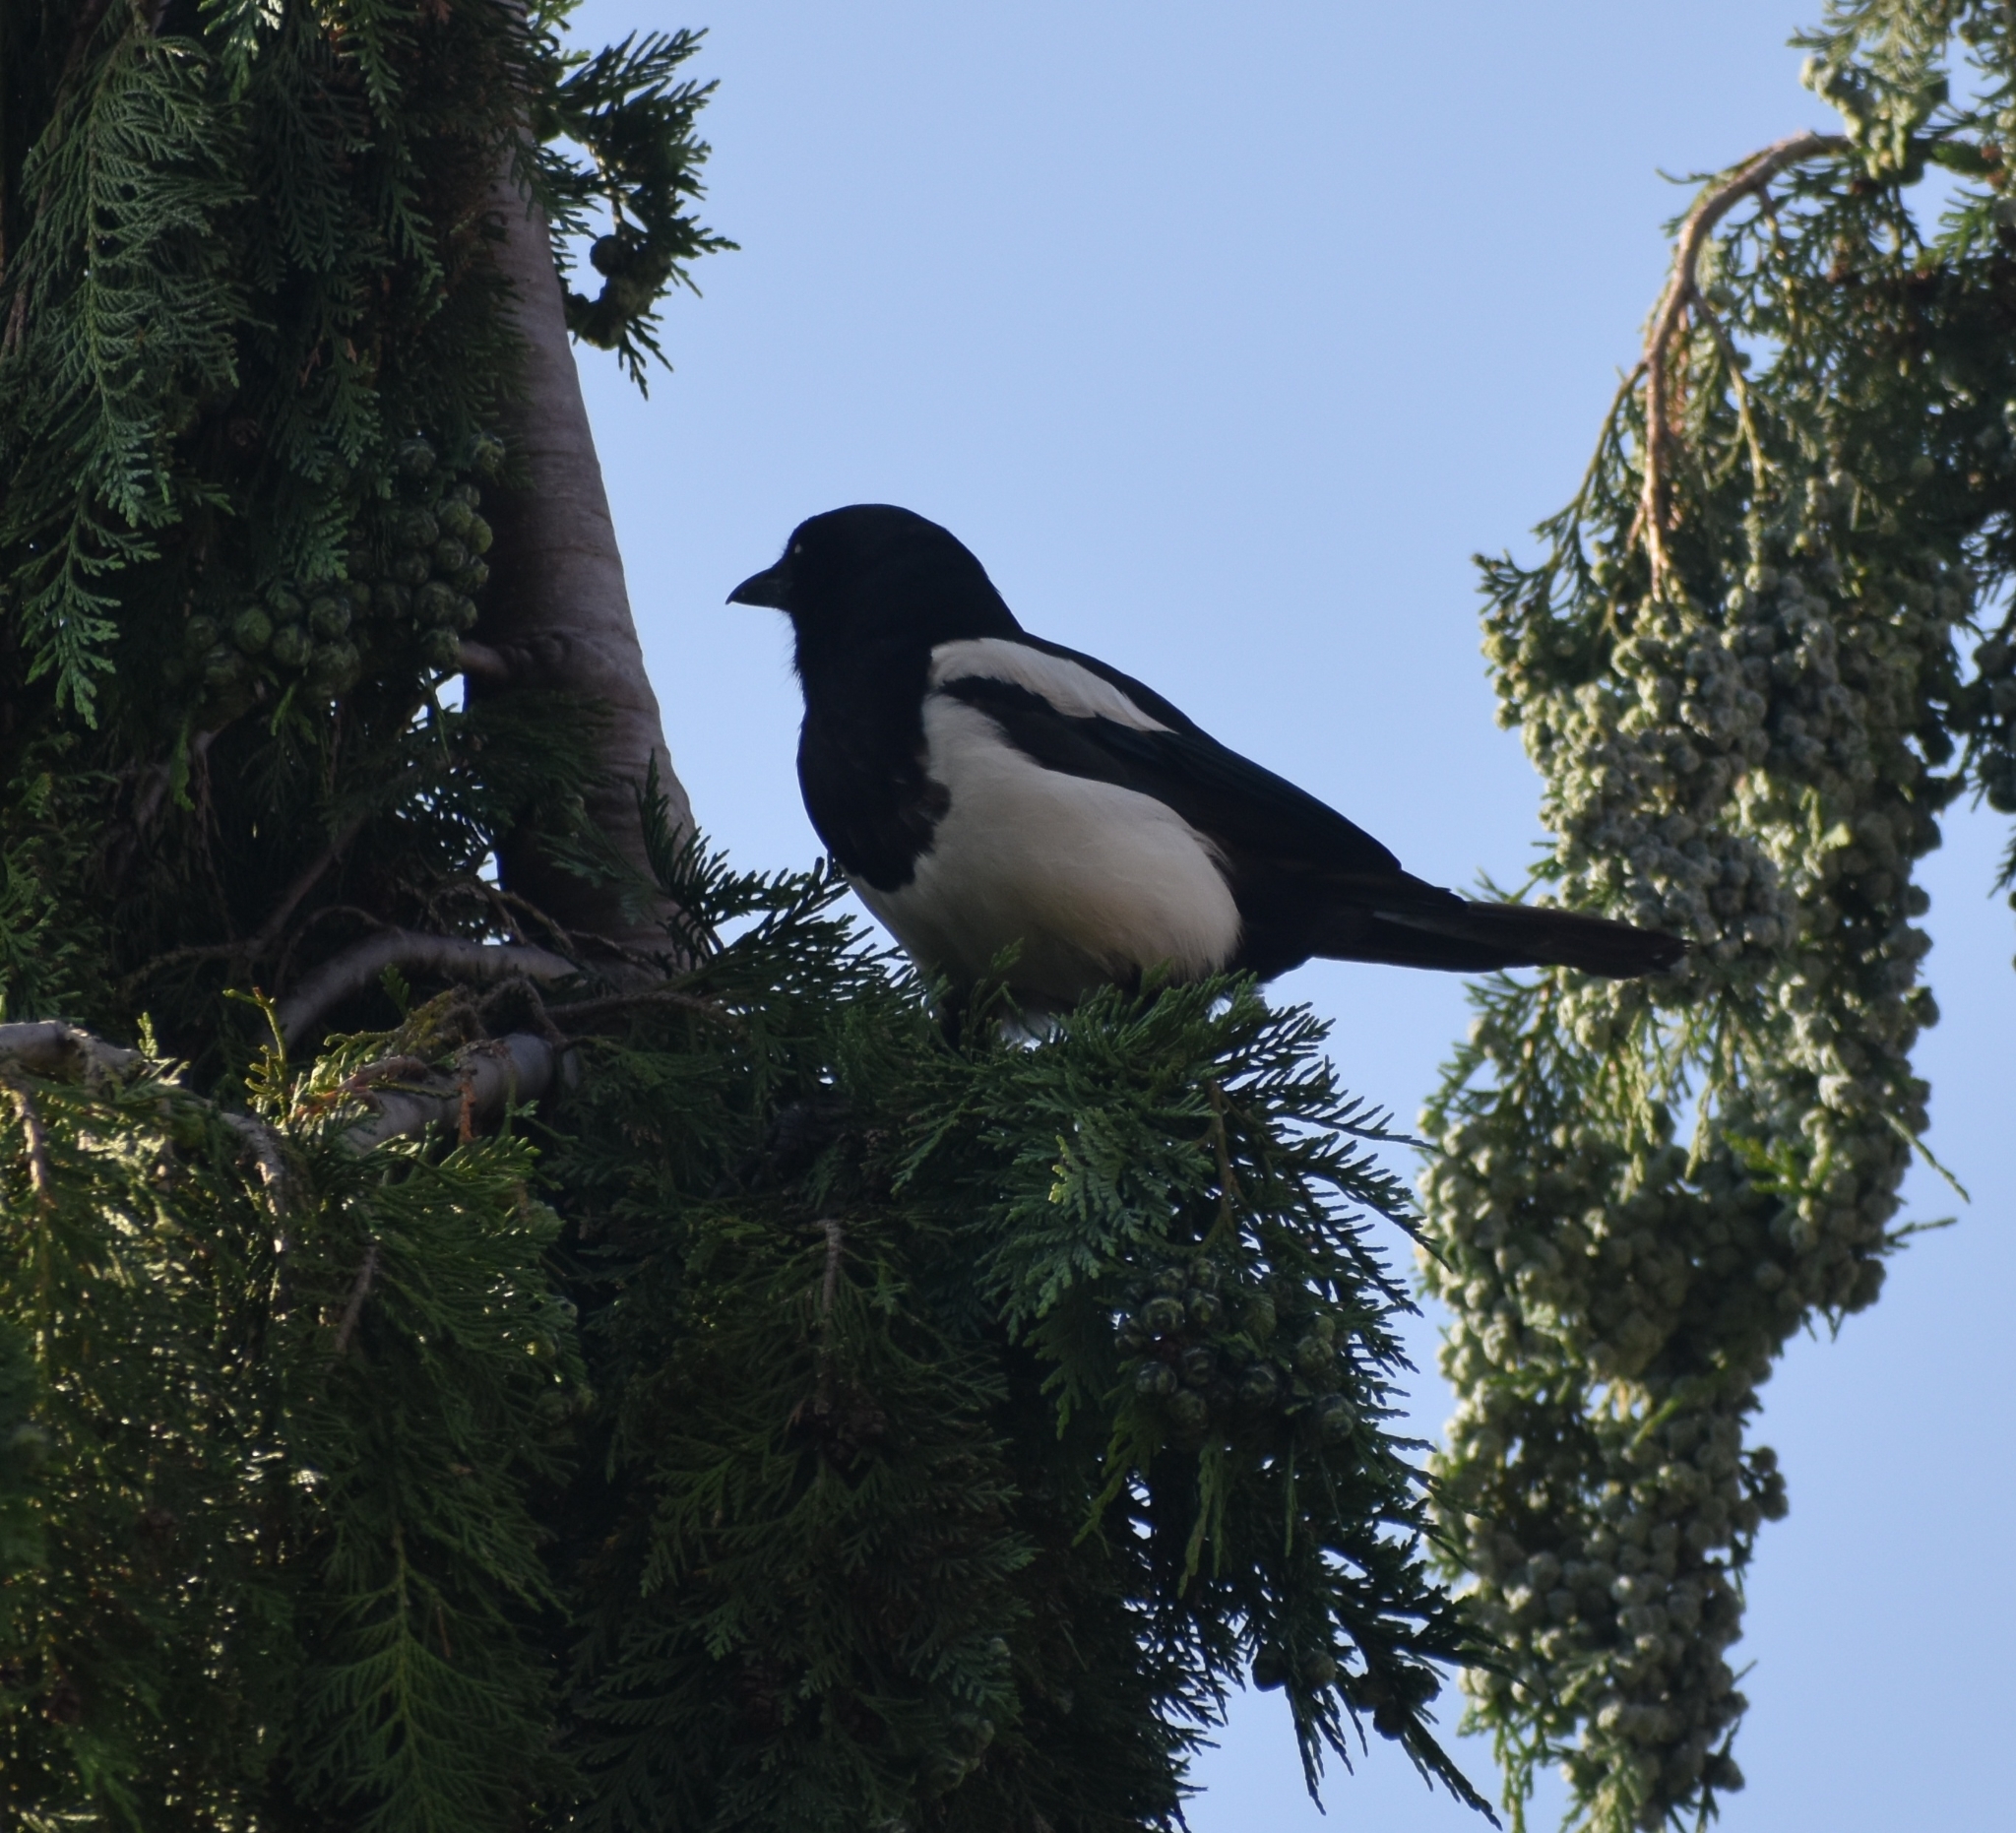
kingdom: Animalia
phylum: Chordata
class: Aves
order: Passeriformes
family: Corvidae
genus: Pica
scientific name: Pica pica
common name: Eurasian magpie
